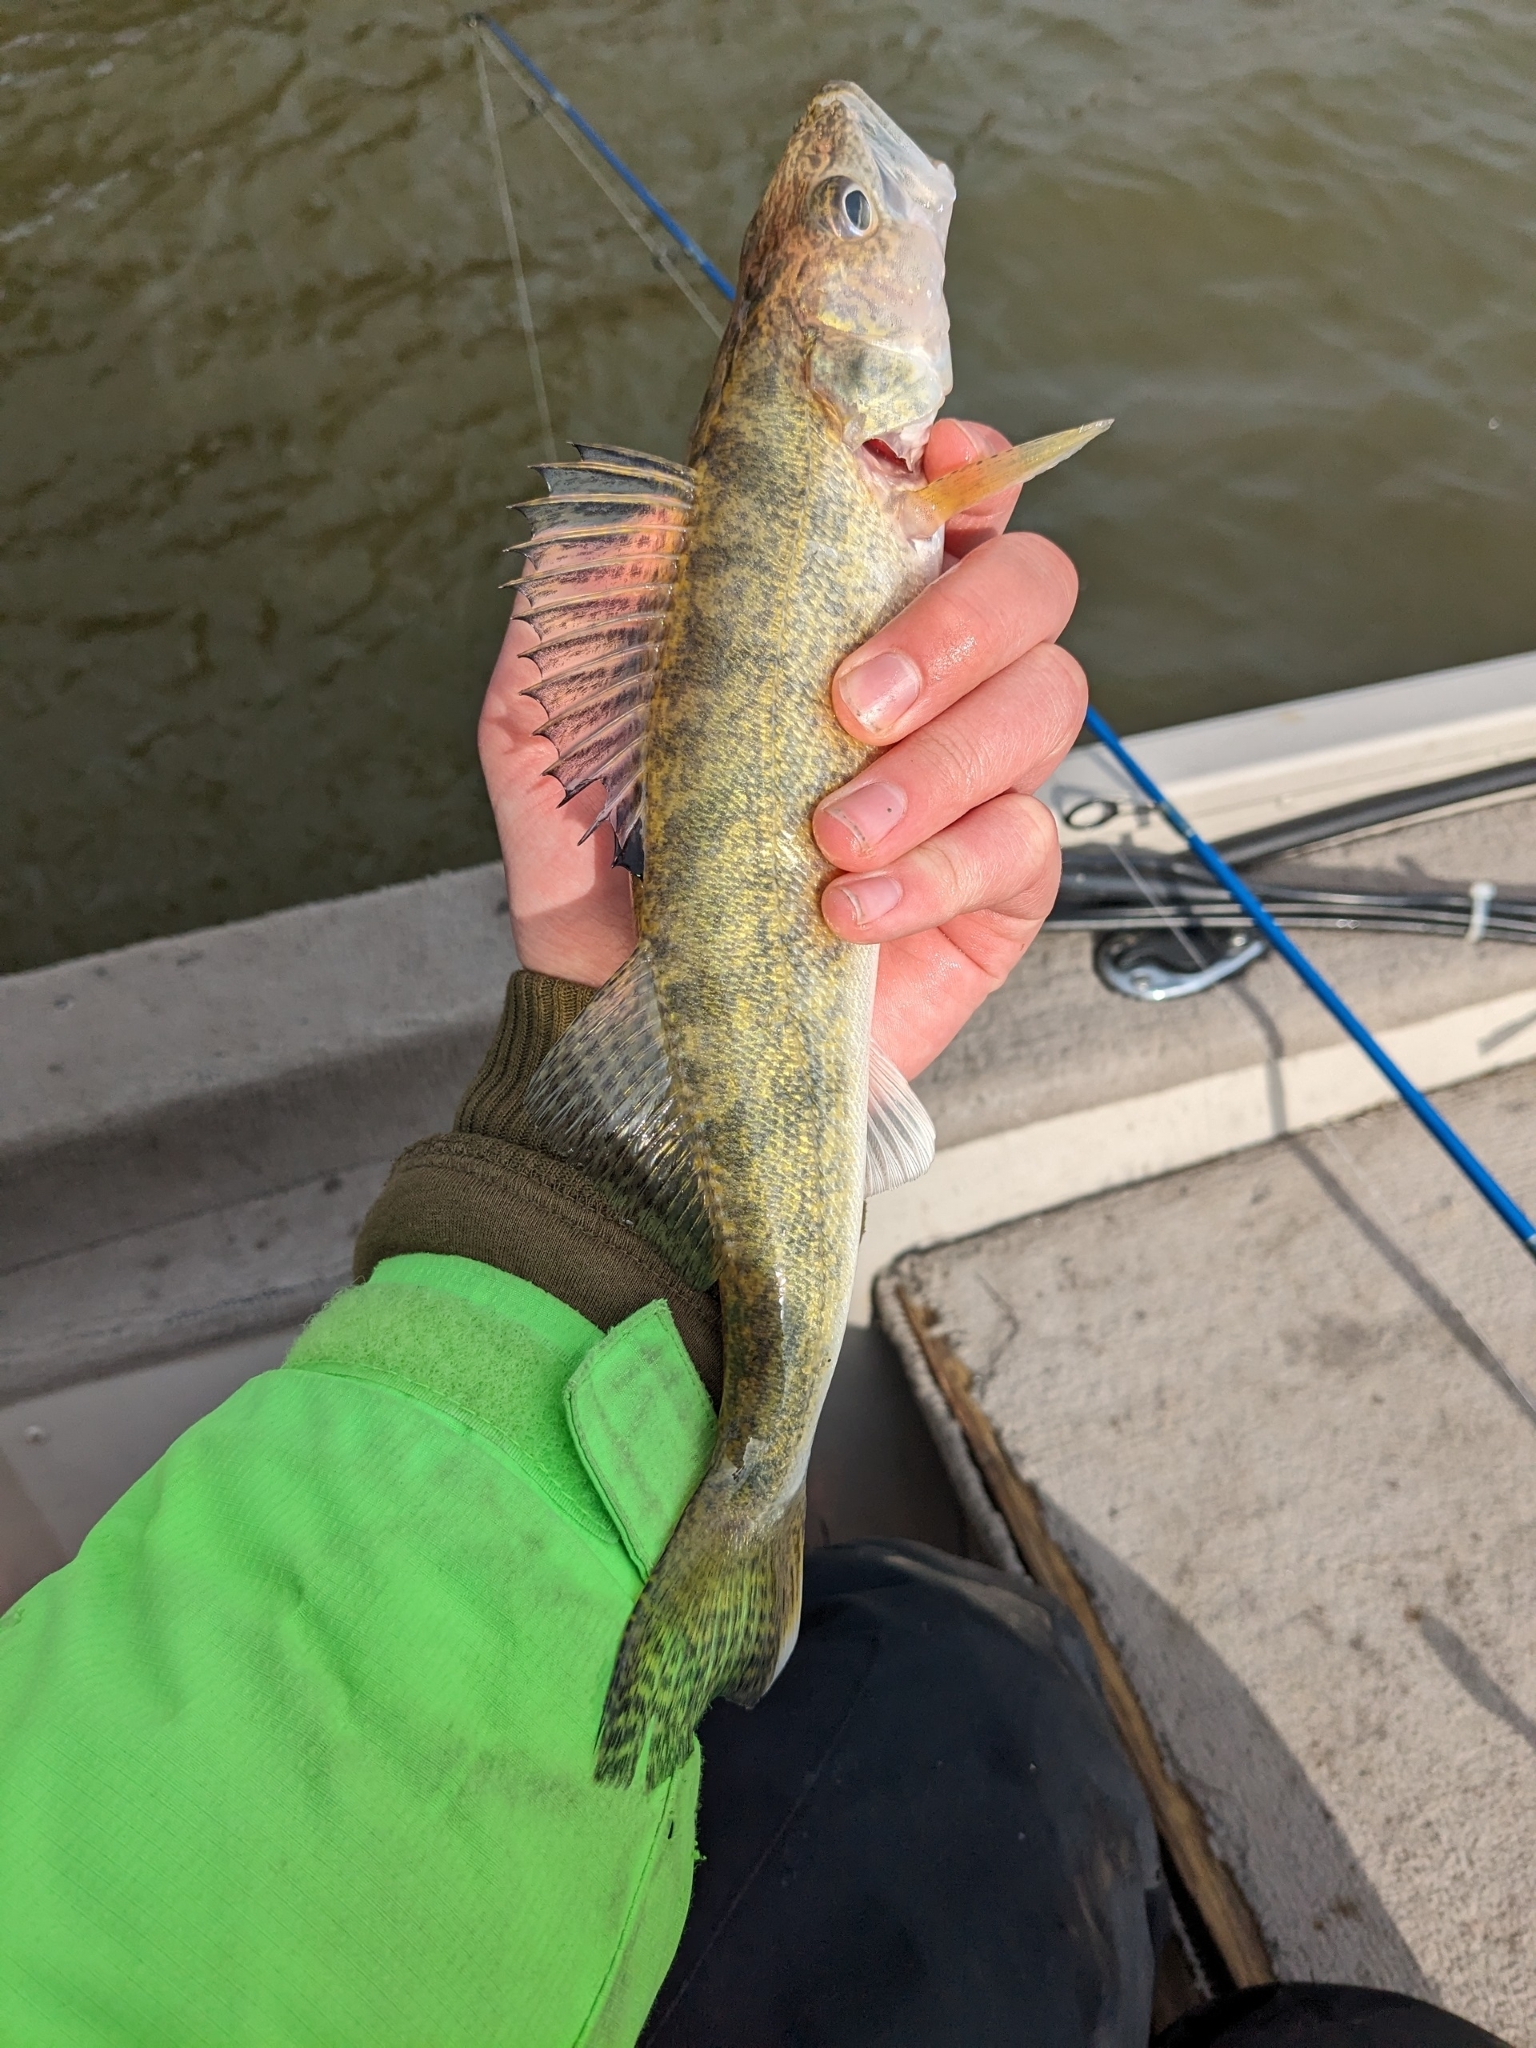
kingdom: Animalia
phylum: Chordata
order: Perciformes
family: Percidae
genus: Sander
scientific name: Sander vitreus
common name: Walleye
